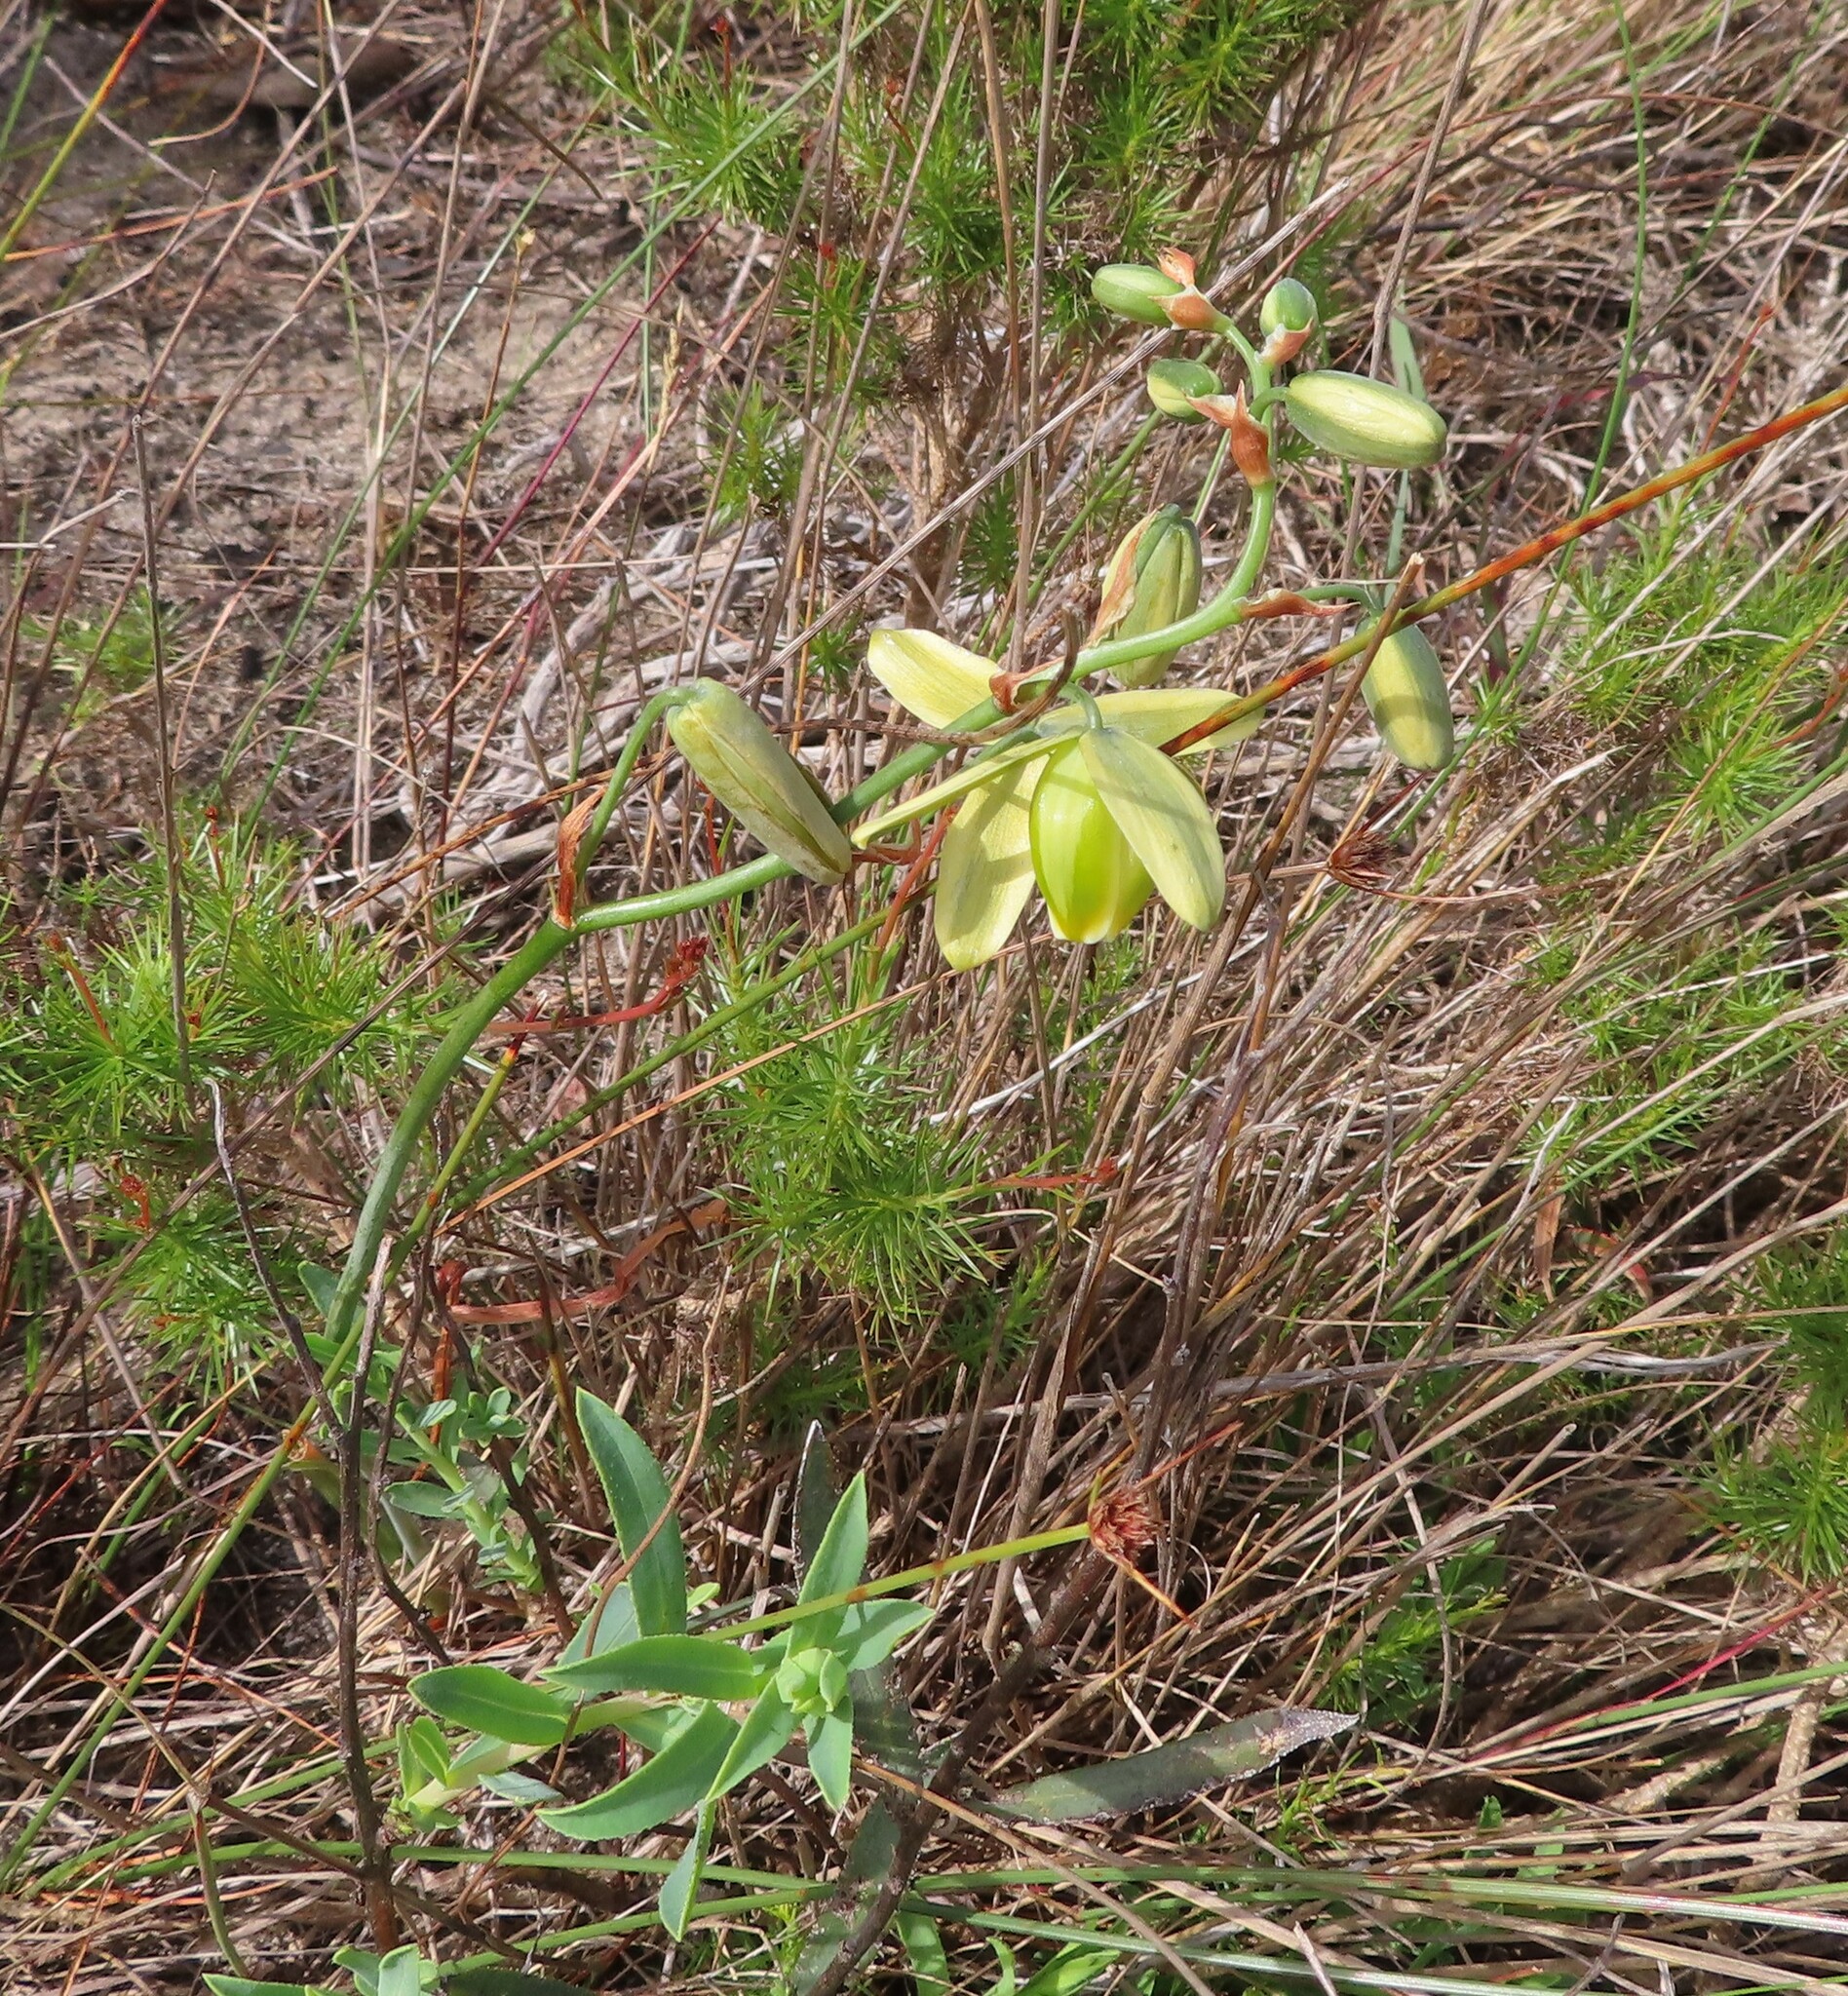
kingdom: Plantae
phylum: Tracheophyta
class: Liliopsida
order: Asparagales
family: Asparagaceae
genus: Albuca
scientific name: Albuca cooperi
